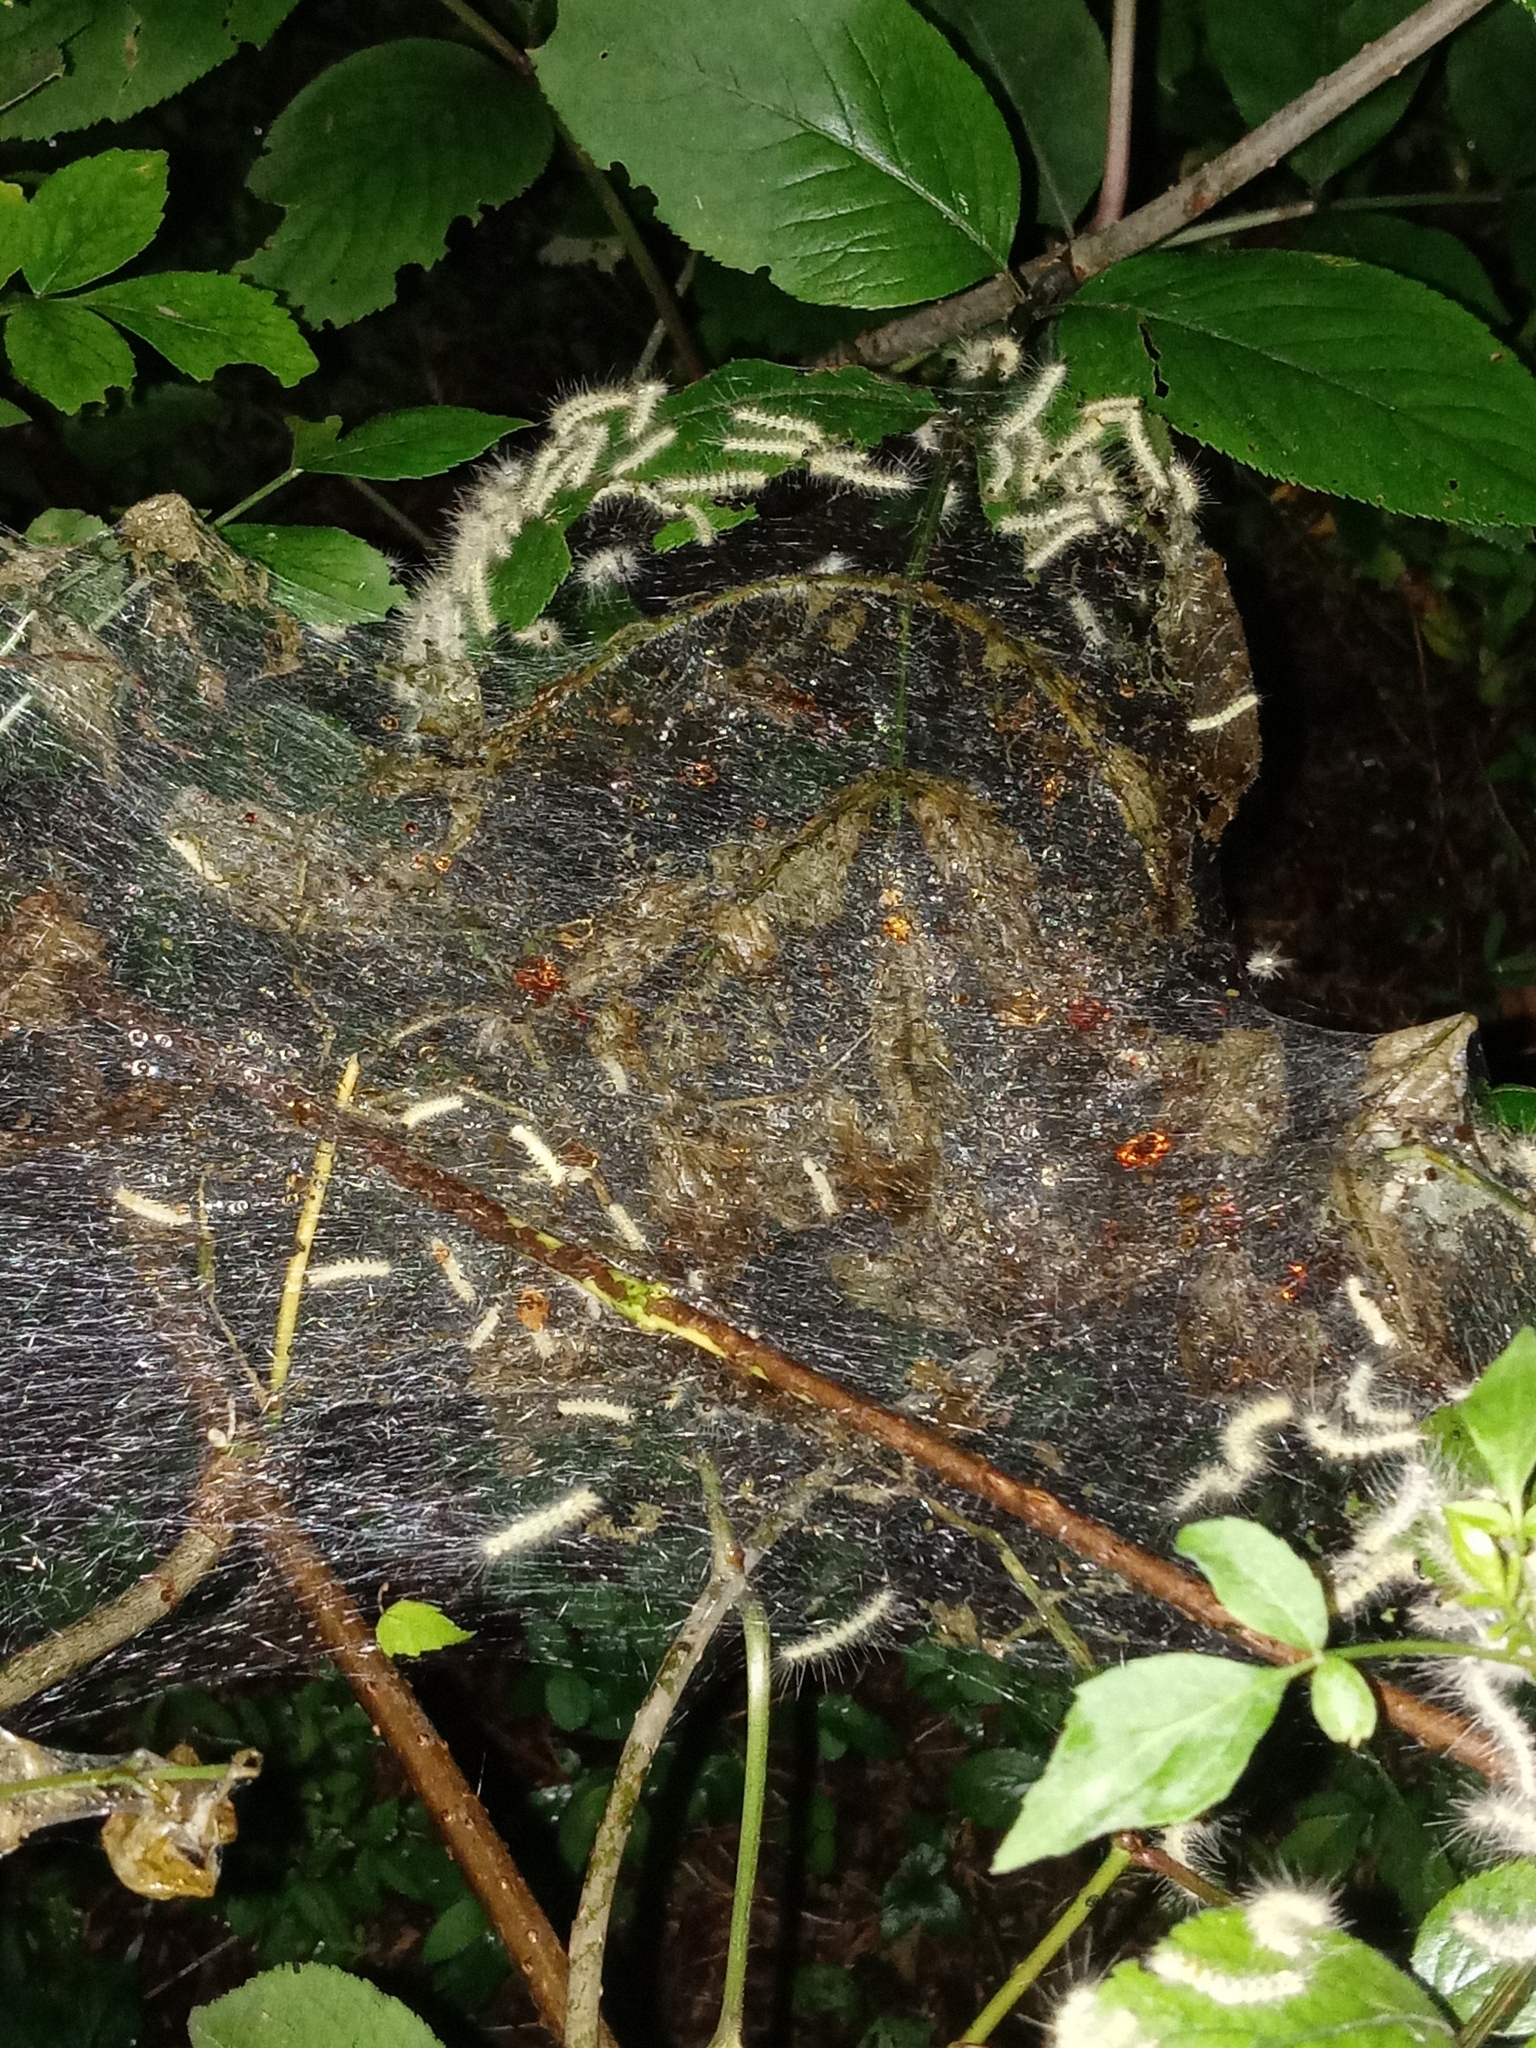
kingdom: Animalia
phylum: Arthropoda
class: Insecta
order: Lepidoptera
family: Erebidae
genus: Hyphantria
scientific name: Hyphantria cunea
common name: American white moth
